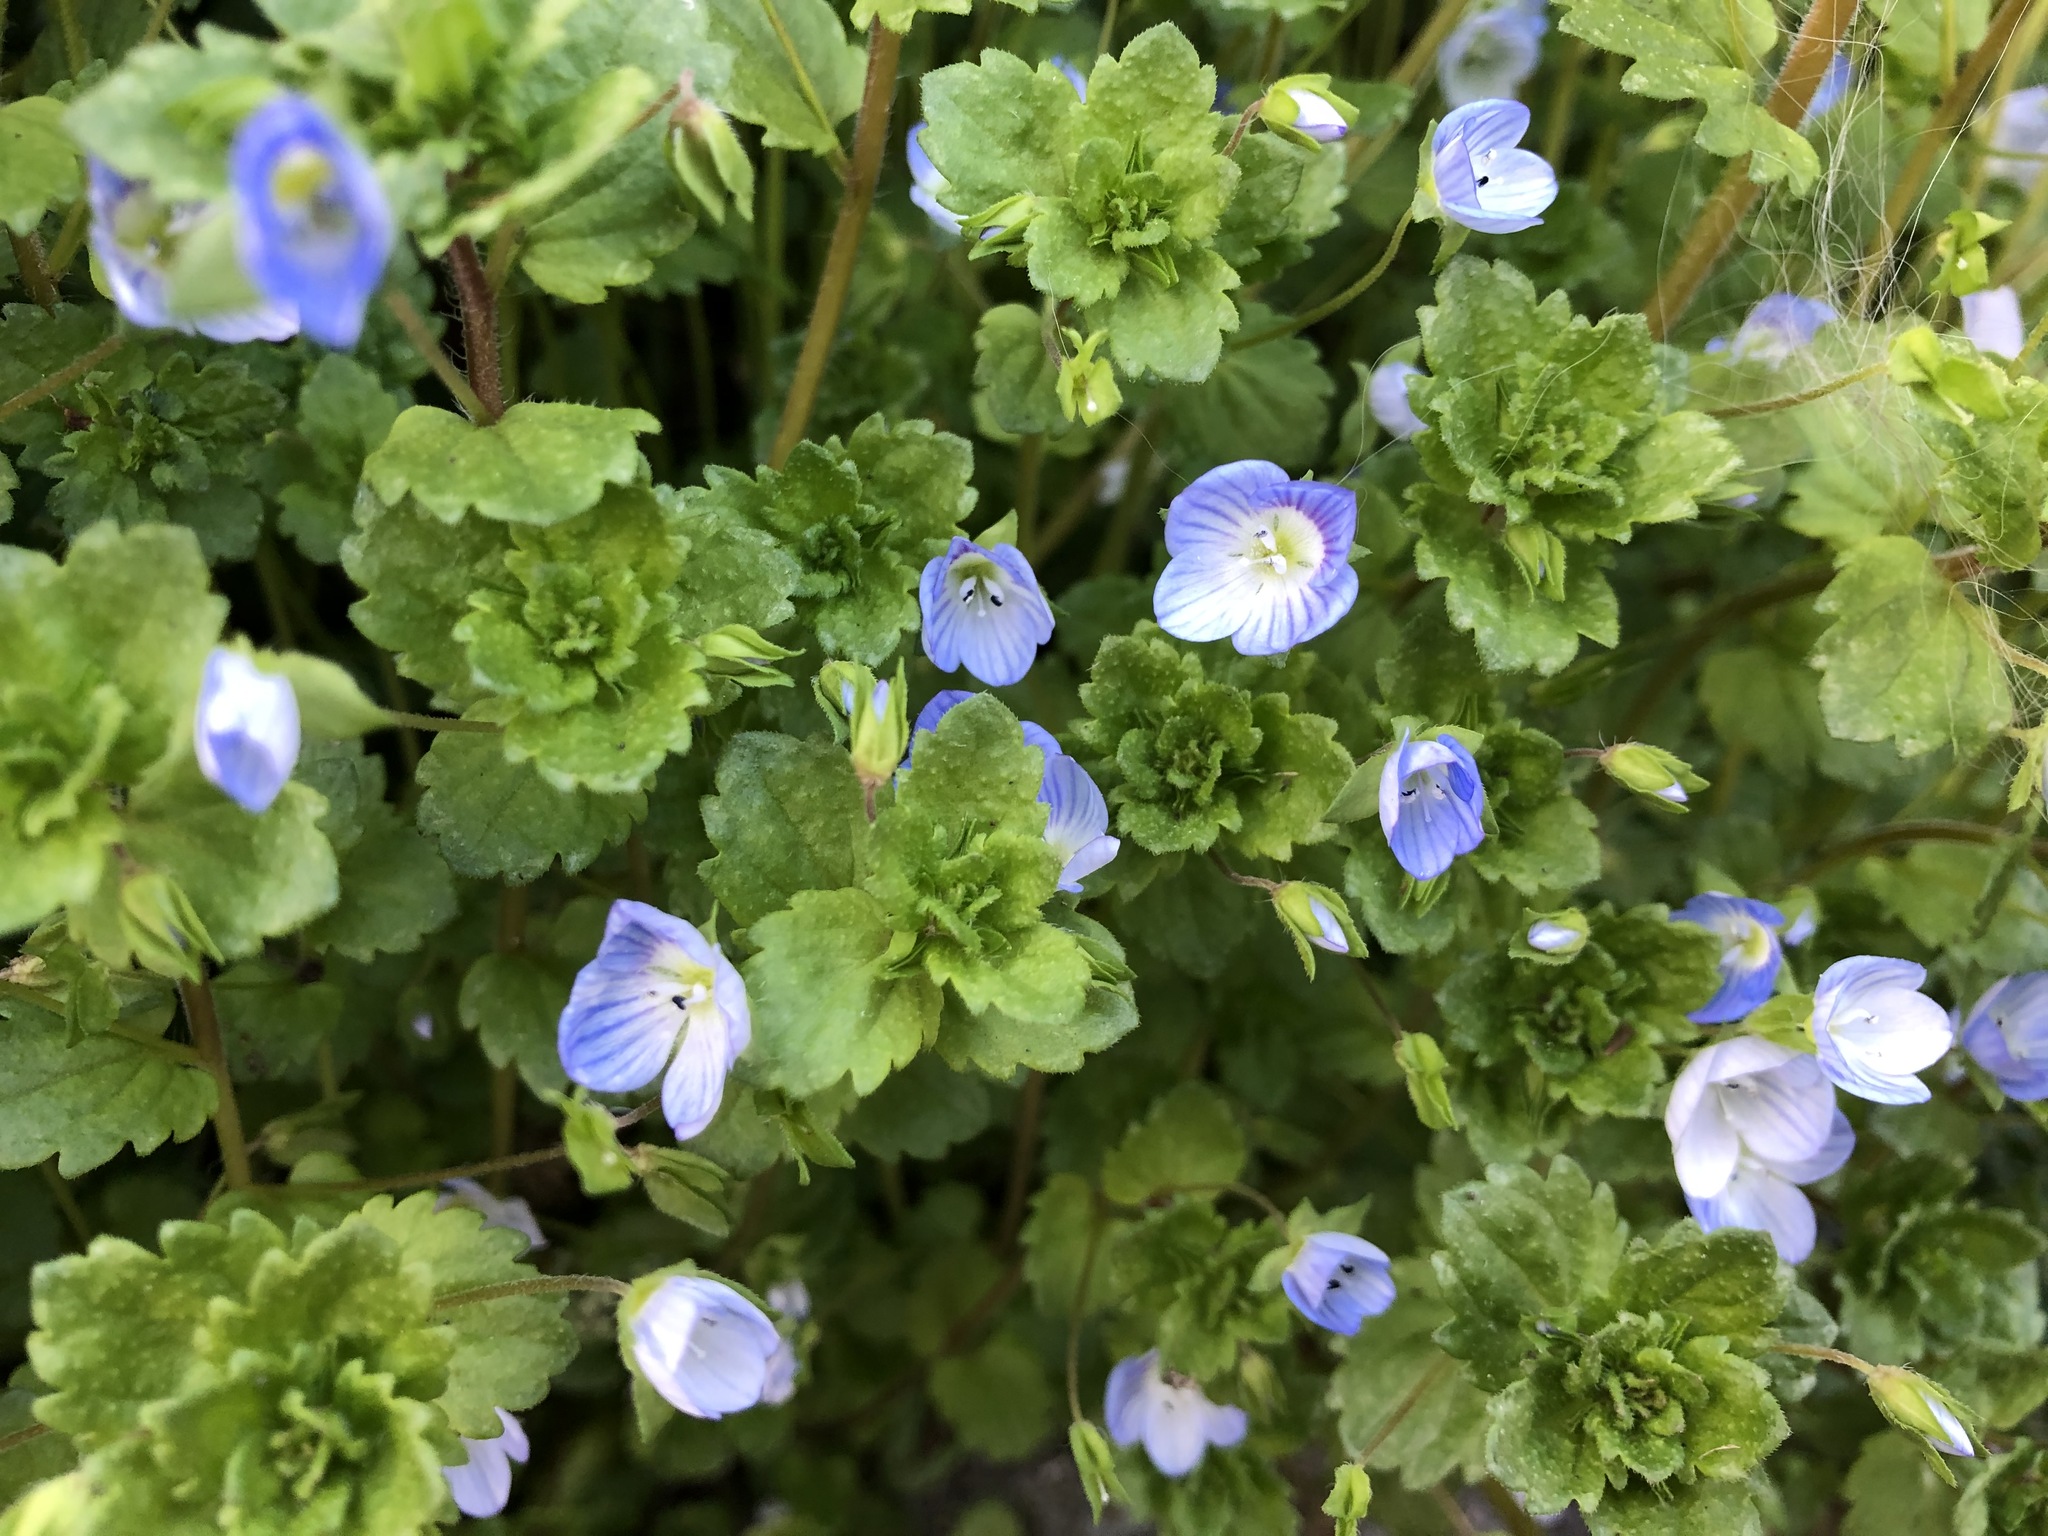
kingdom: Plantae
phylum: Tracheophyta
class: Magnoliopsida
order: Lamiales
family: Plantaginaceae
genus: Veronica
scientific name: Veronica persica
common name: Common field-speedwell
